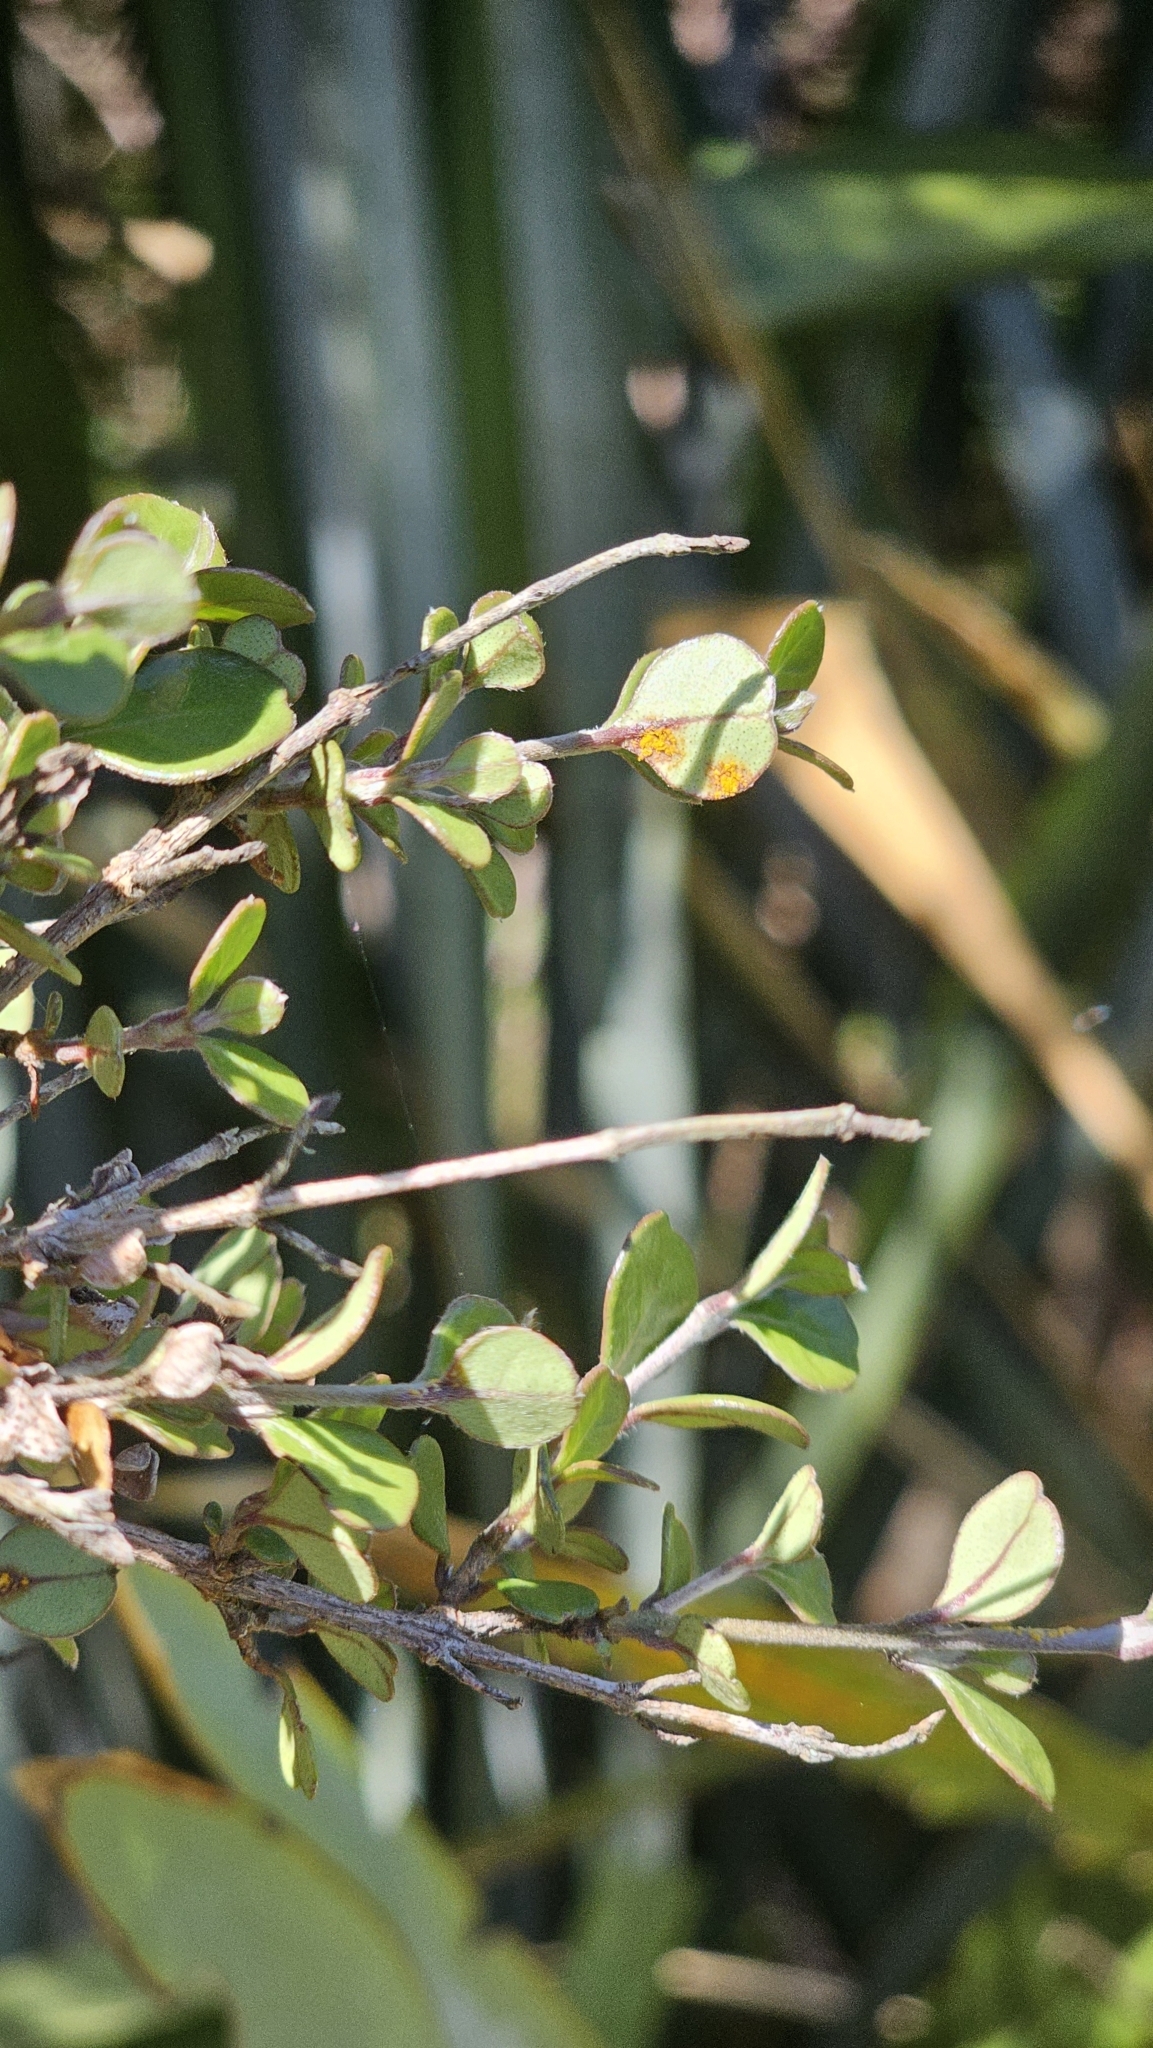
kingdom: Fungi
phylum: Basidiomycota
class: Pucciniomycetes
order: Pucciniales
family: Sphaerophragmiaceae
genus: Austropuccinia
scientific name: Austropuccinia psidii
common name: Myrtle rust
